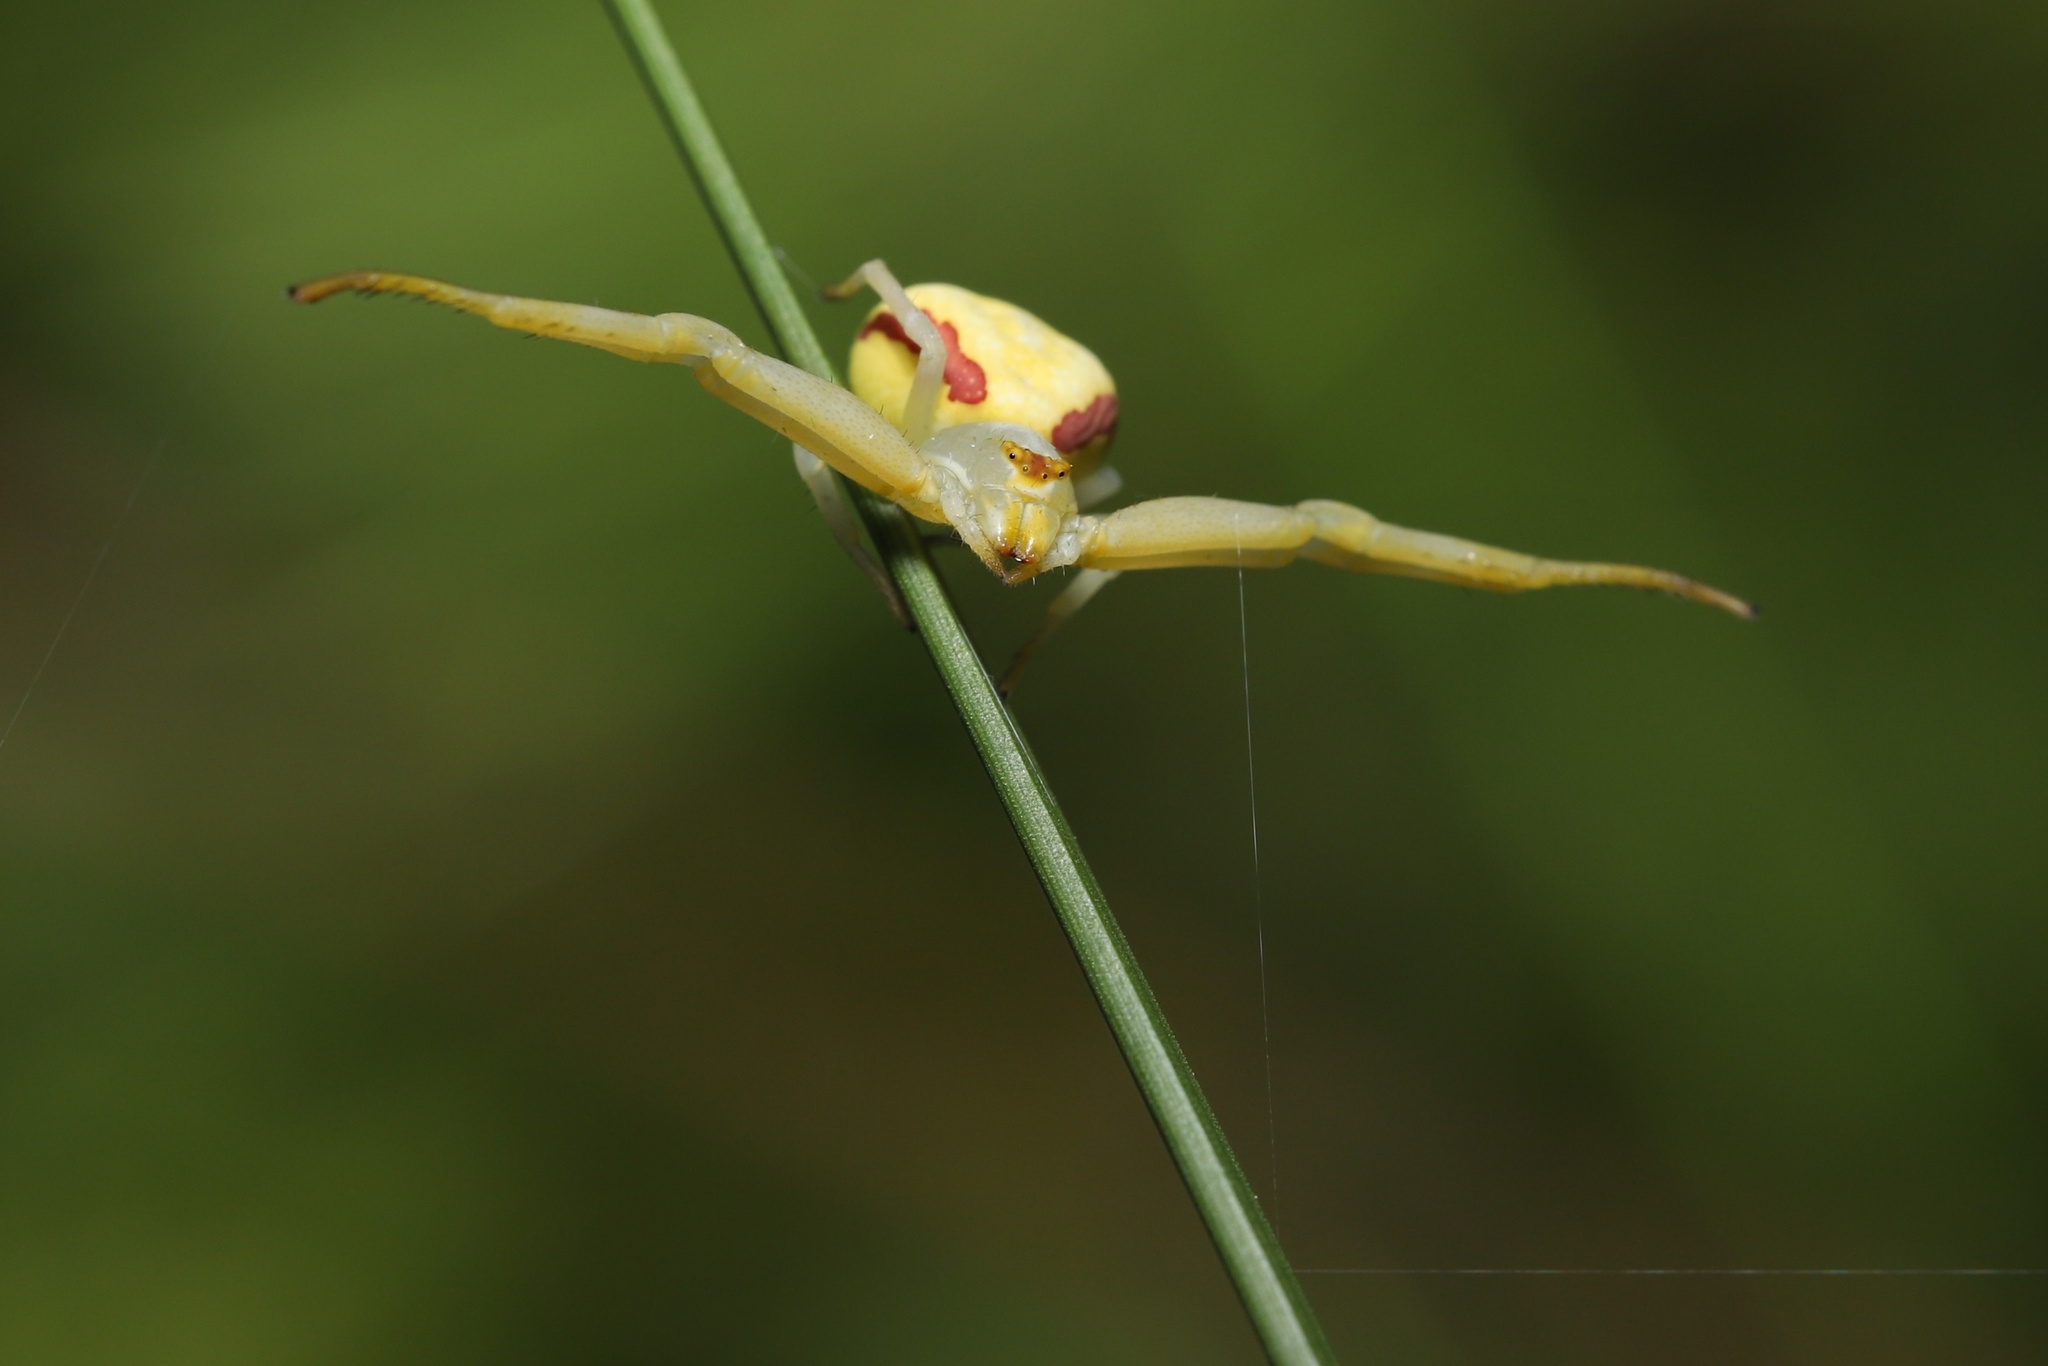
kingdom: Animalia
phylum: Arthropoda
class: Arachnida
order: Araneae
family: Thomisidae
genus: Misumena
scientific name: Misumena vatia
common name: Goldenrod crab spider
